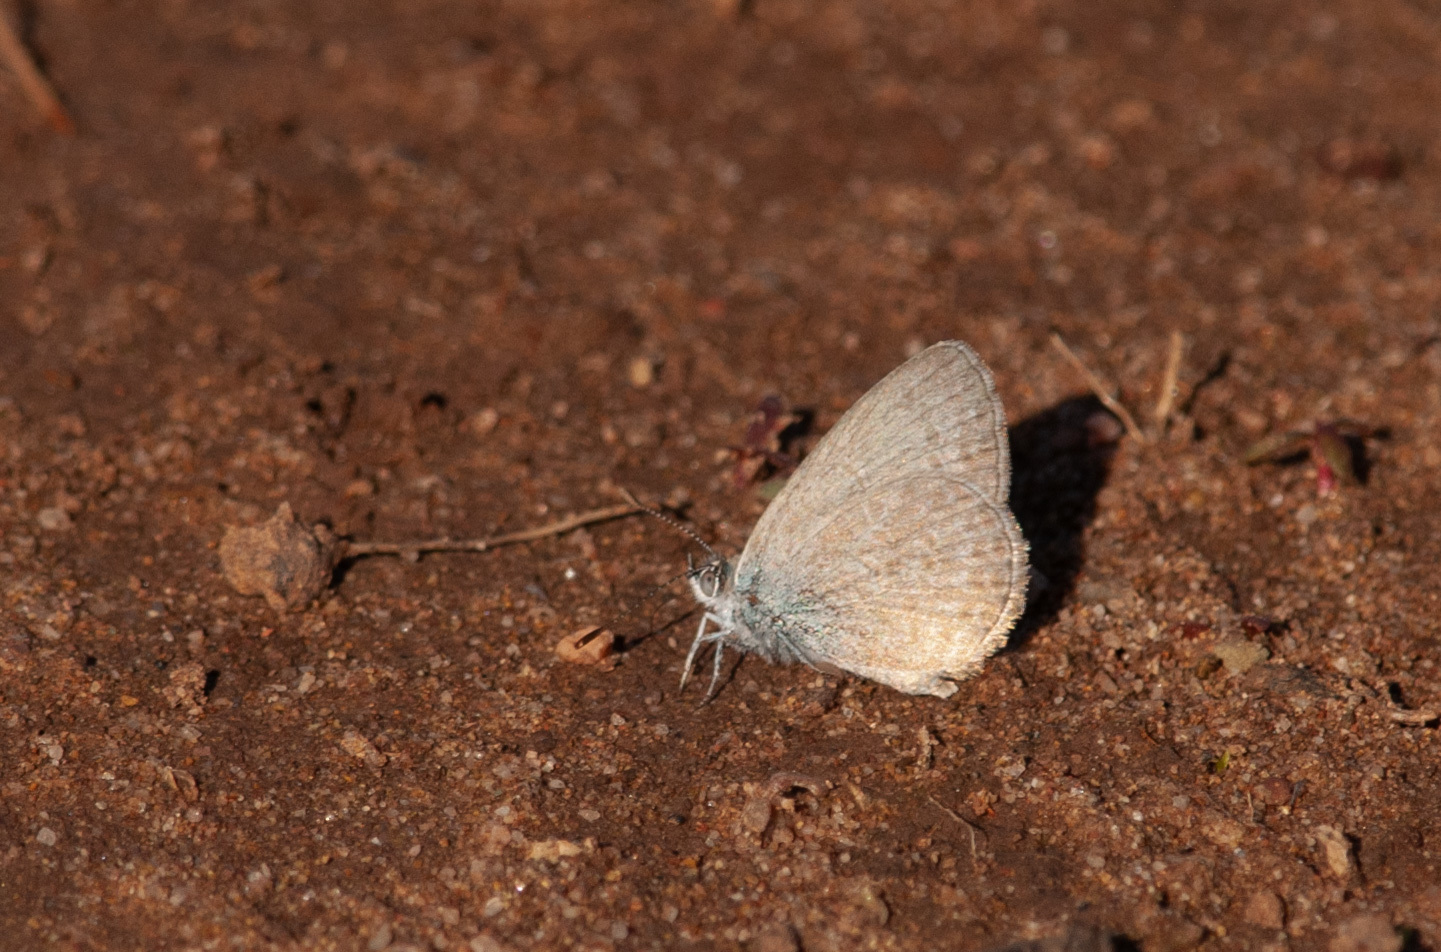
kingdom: Animalia
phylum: Arthropoda
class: Insecta
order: Lepidoptera
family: Lycaenidae
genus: Zizina
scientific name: Zizina labradus
